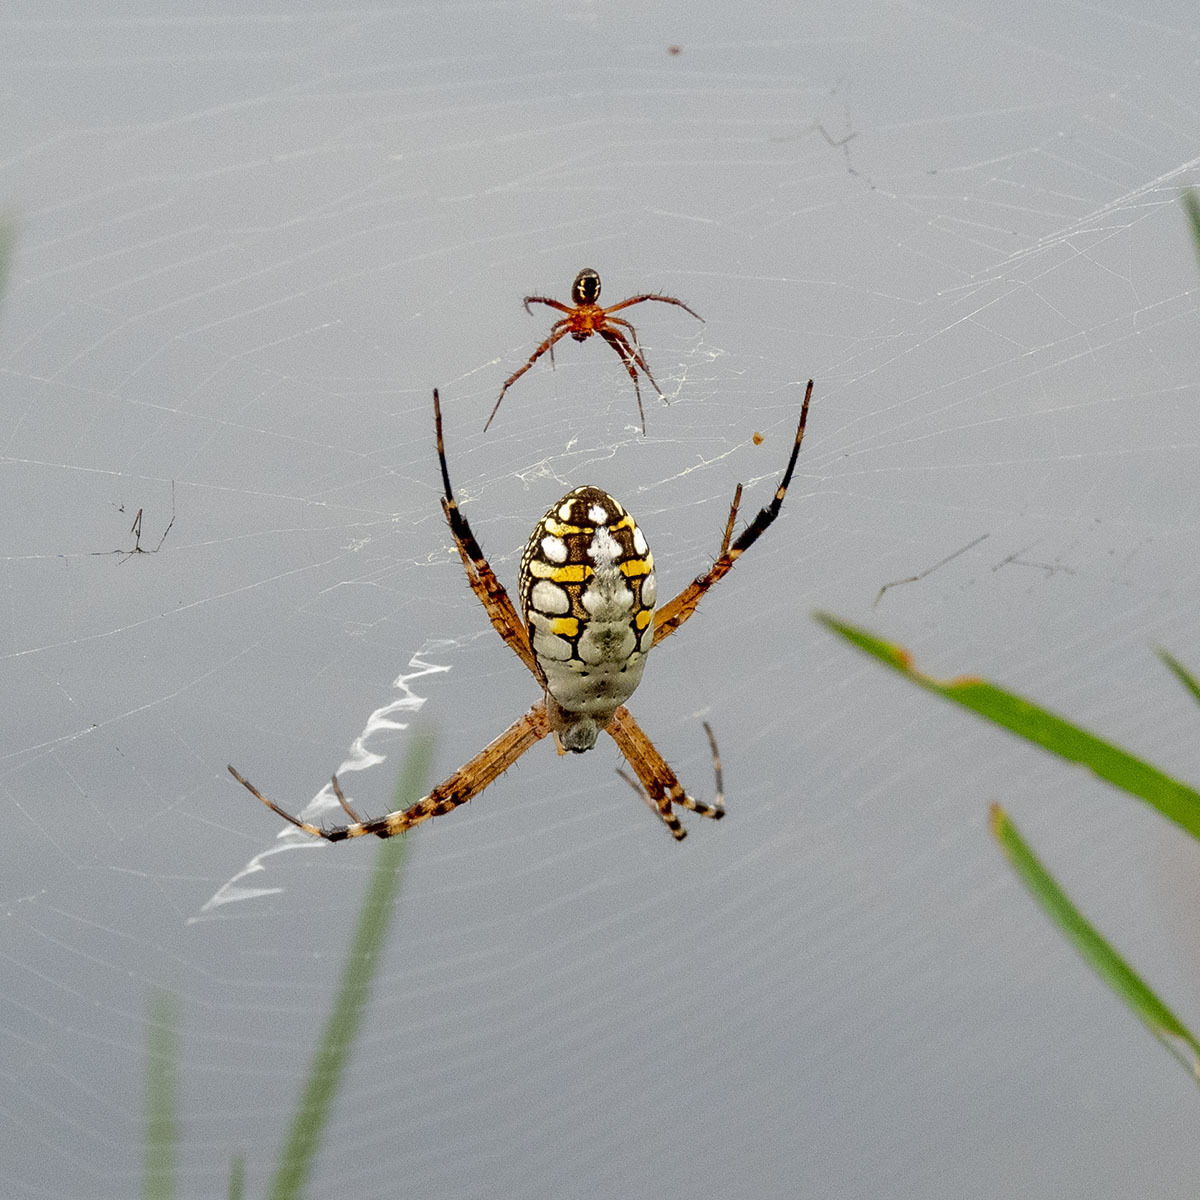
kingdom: Animalia
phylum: Arthropoda
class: Arachnida
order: Araneae
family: Araneidae
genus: Argiope
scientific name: Argiope catenulata
